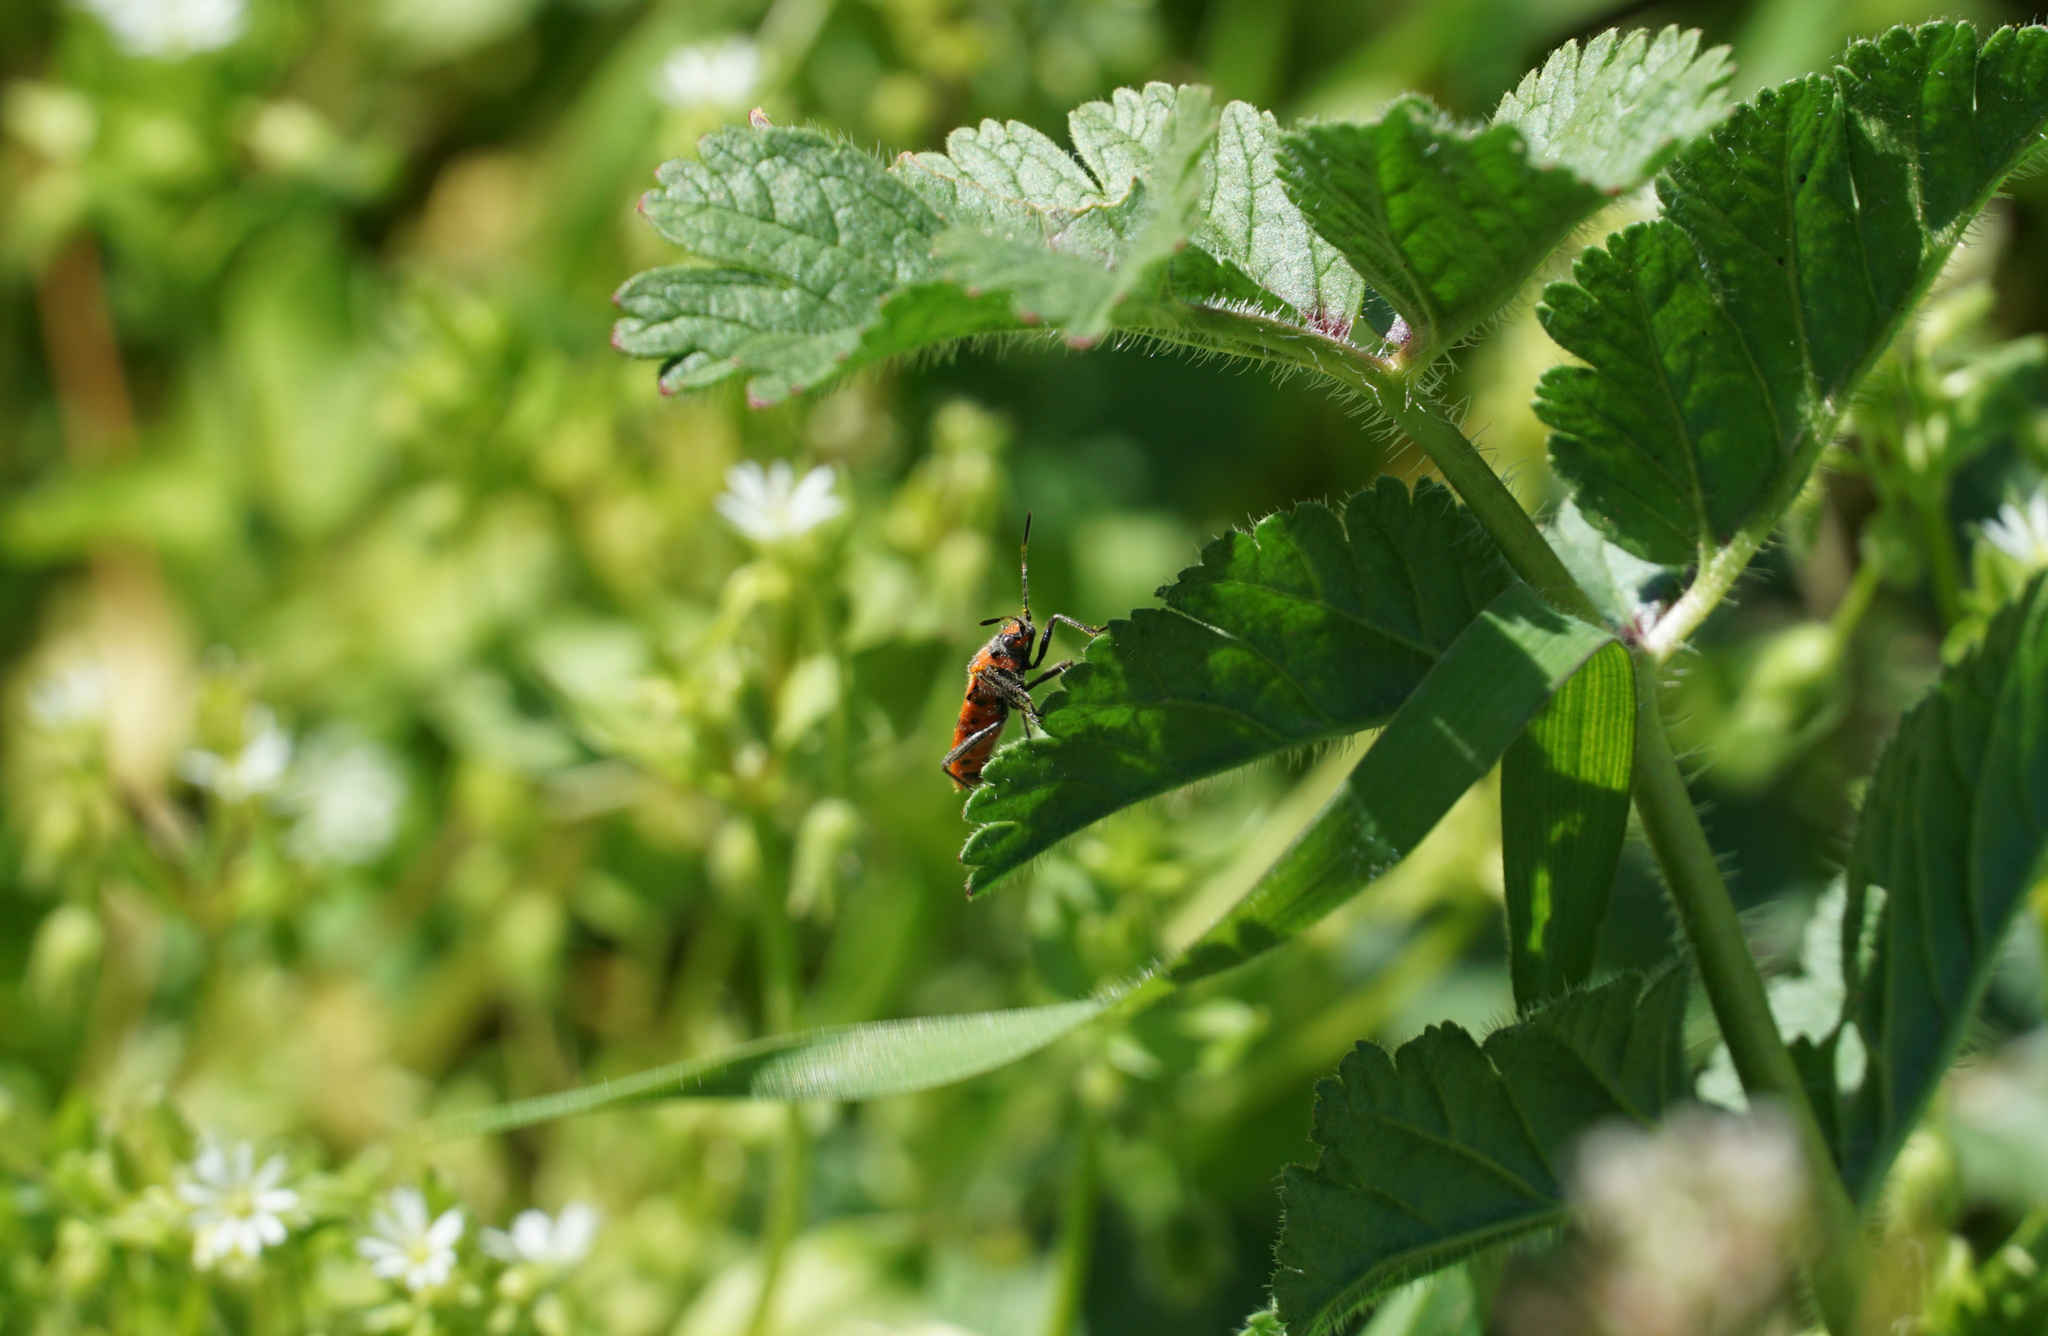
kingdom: Animalia
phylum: Arthropoda
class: Insecta
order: Hemiptera
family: Pentatomidae
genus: Eurydema
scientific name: Eurydema ornata
